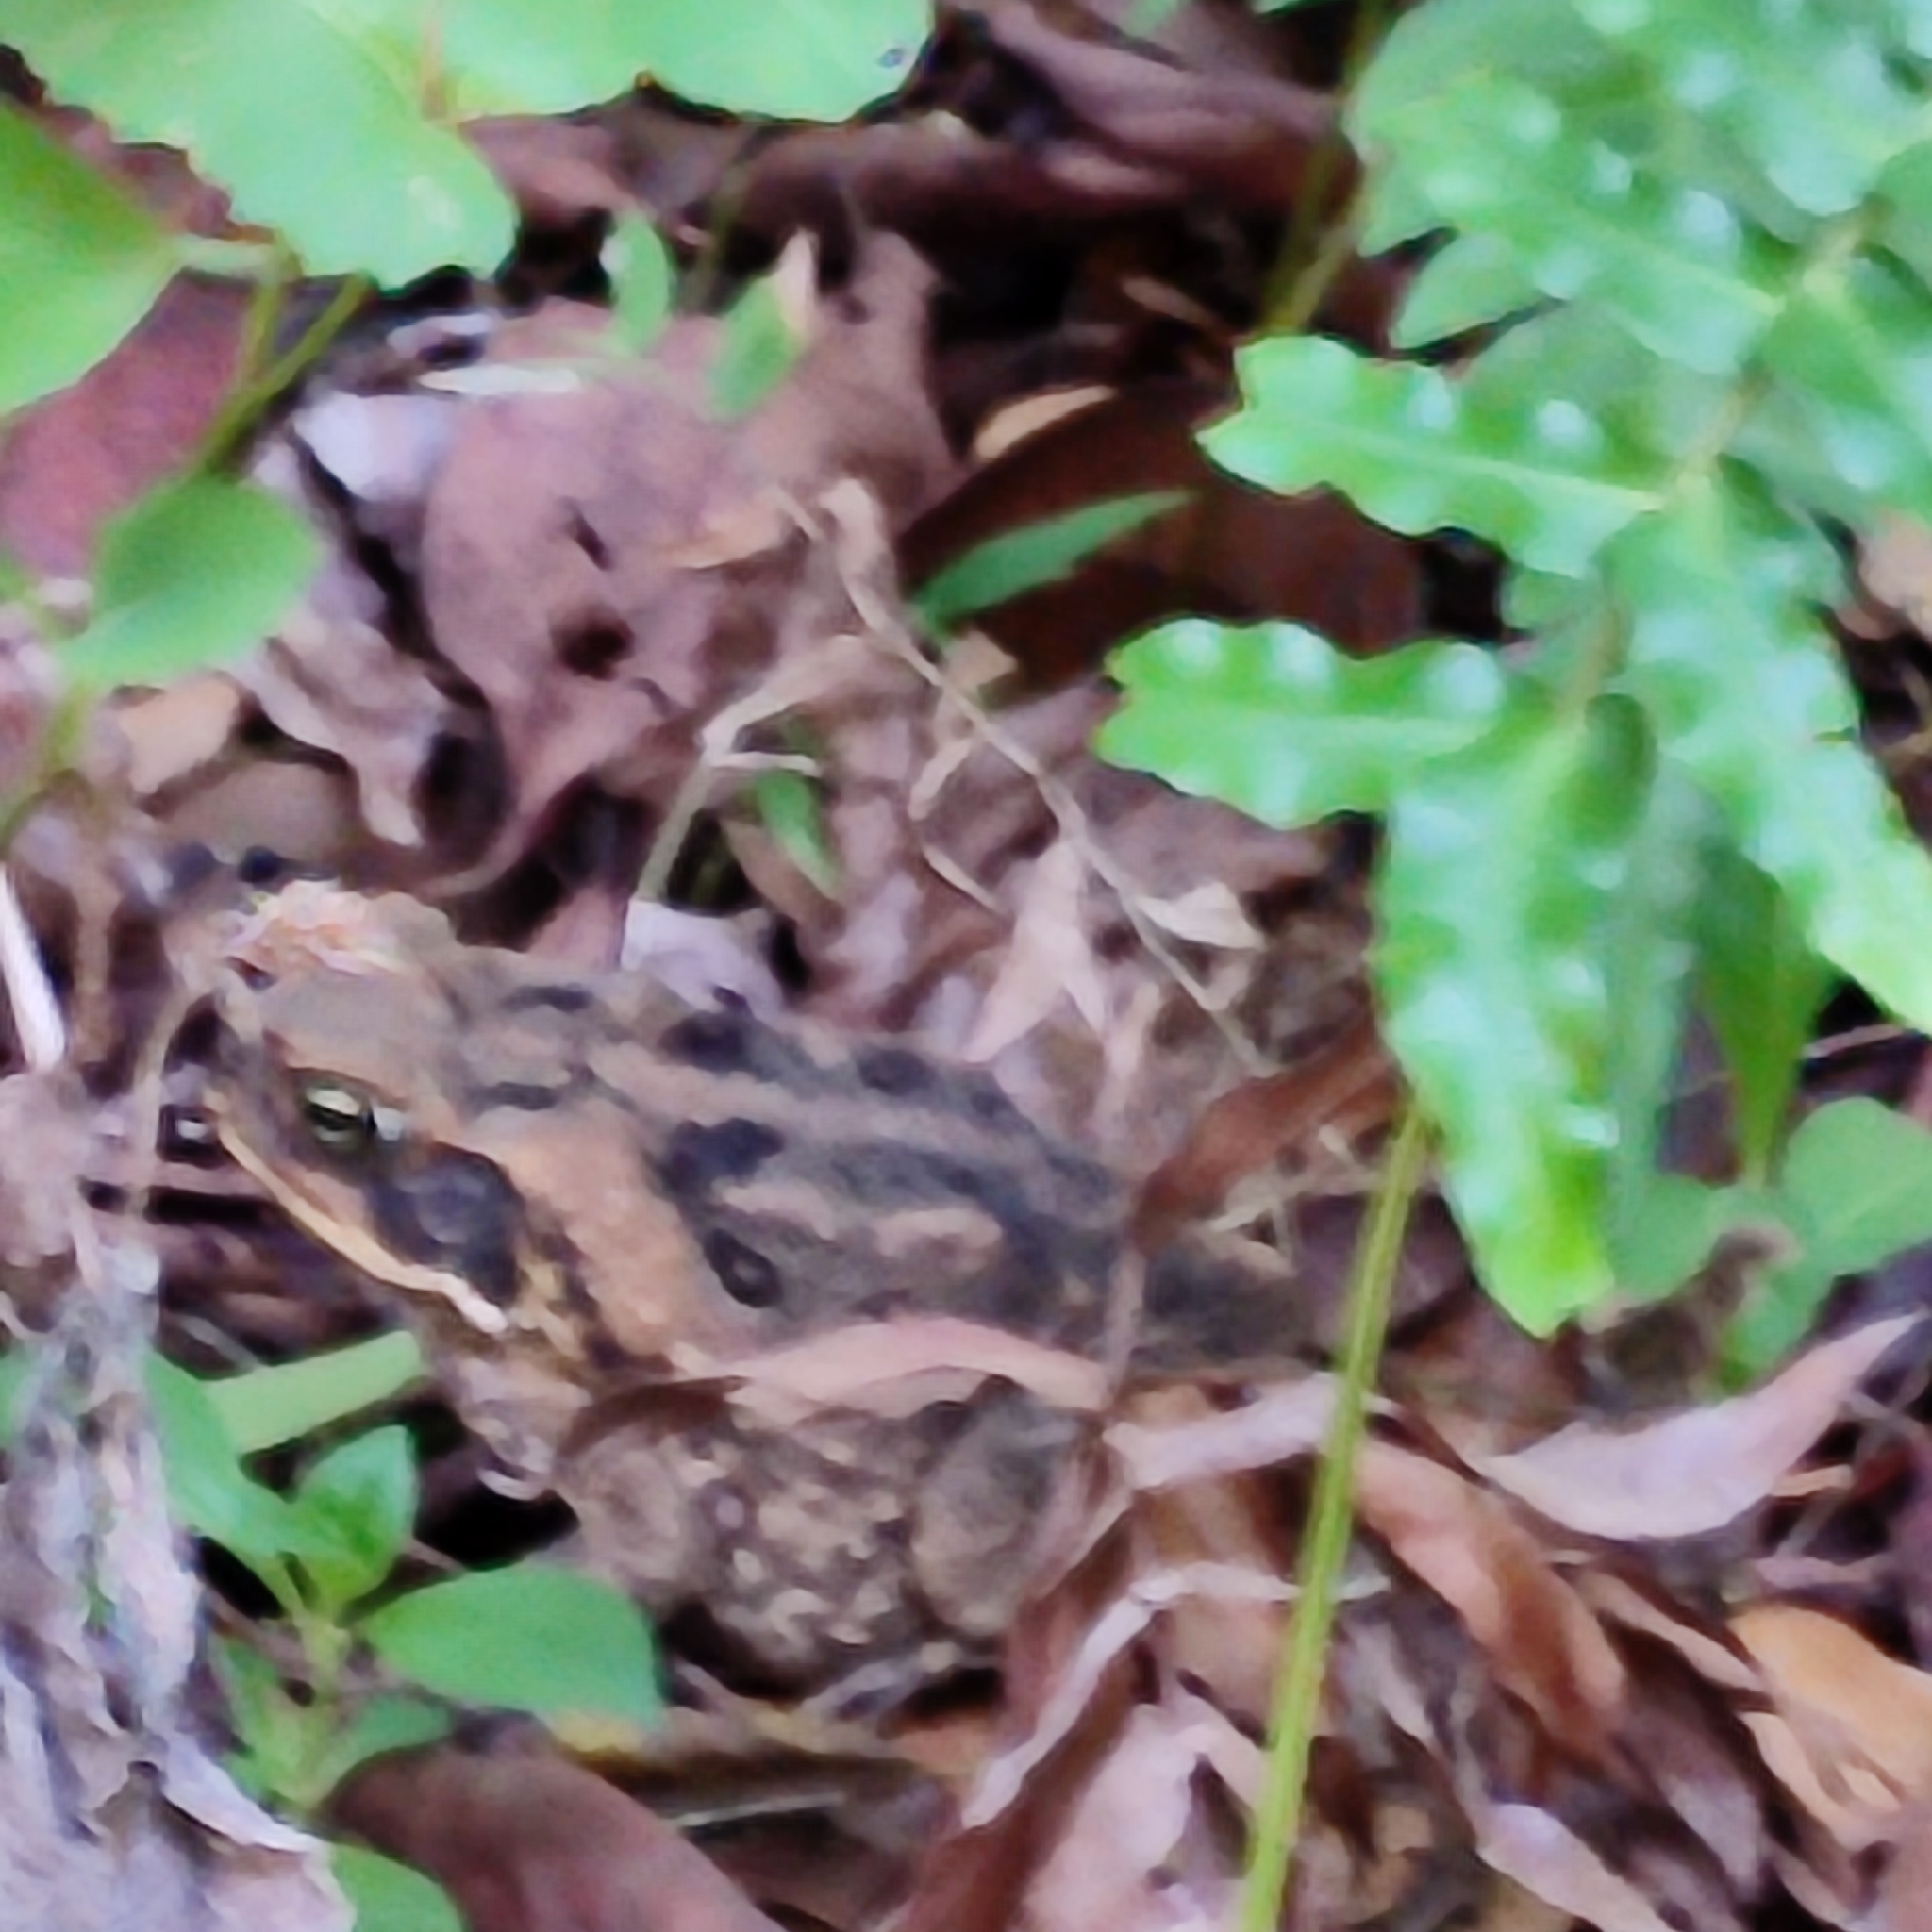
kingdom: Animalia
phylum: Chordata
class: Amphibia
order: Anura
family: Bufonidae
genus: Rhinella
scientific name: Rhinella marina
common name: Cane toad
